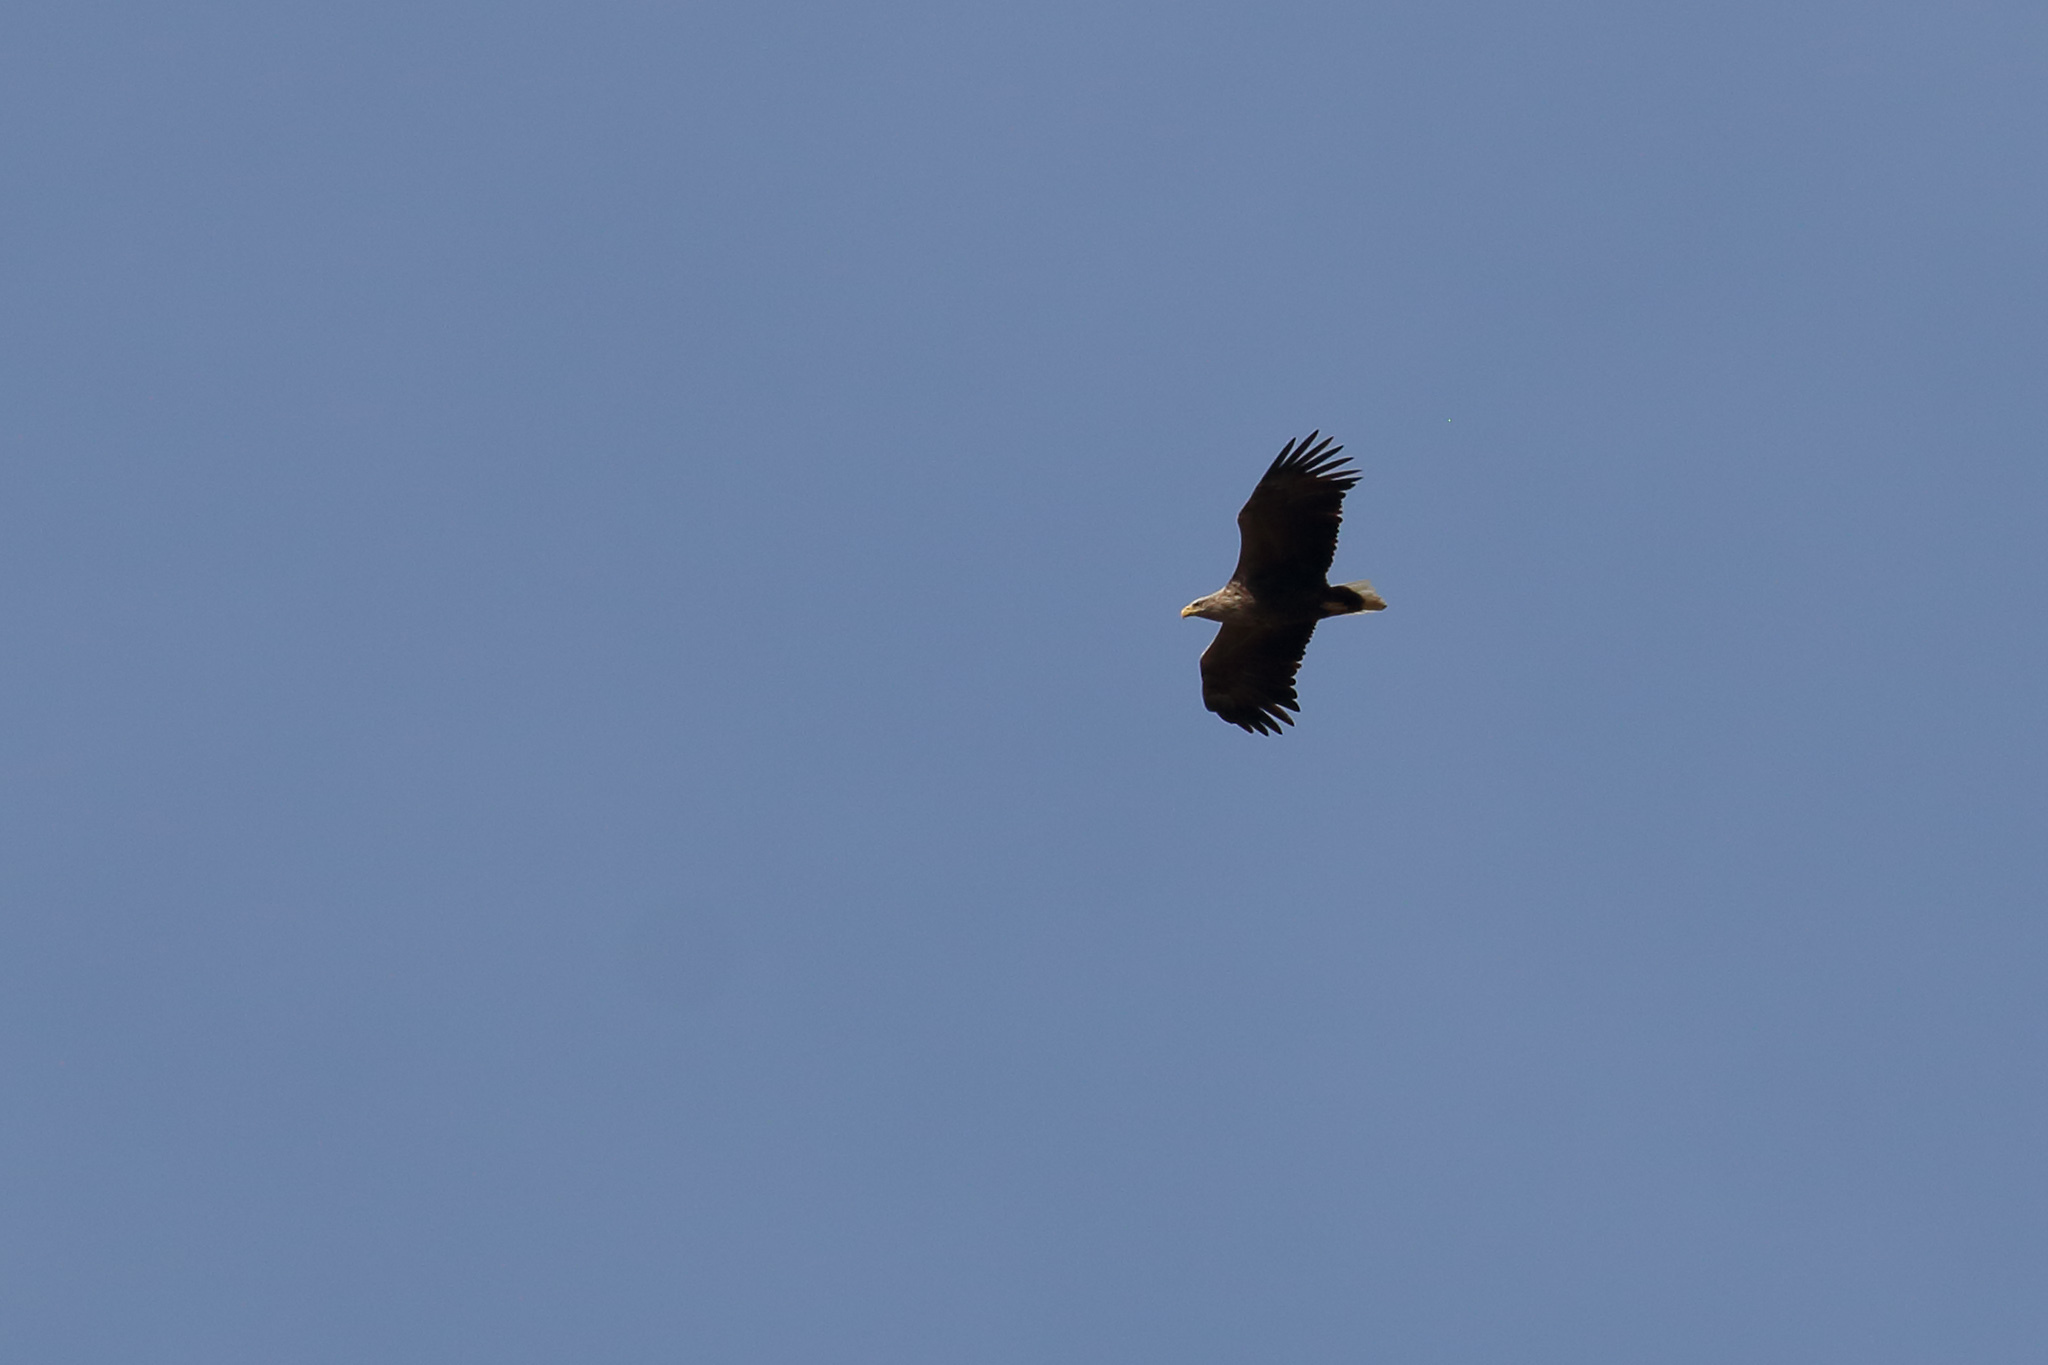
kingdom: Animalia
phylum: Chordata
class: Aves
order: Accipitriformes
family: Accipitridae
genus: Haliaeetus
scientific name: Haliaeetus albicilla
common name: White-tailed eagle
